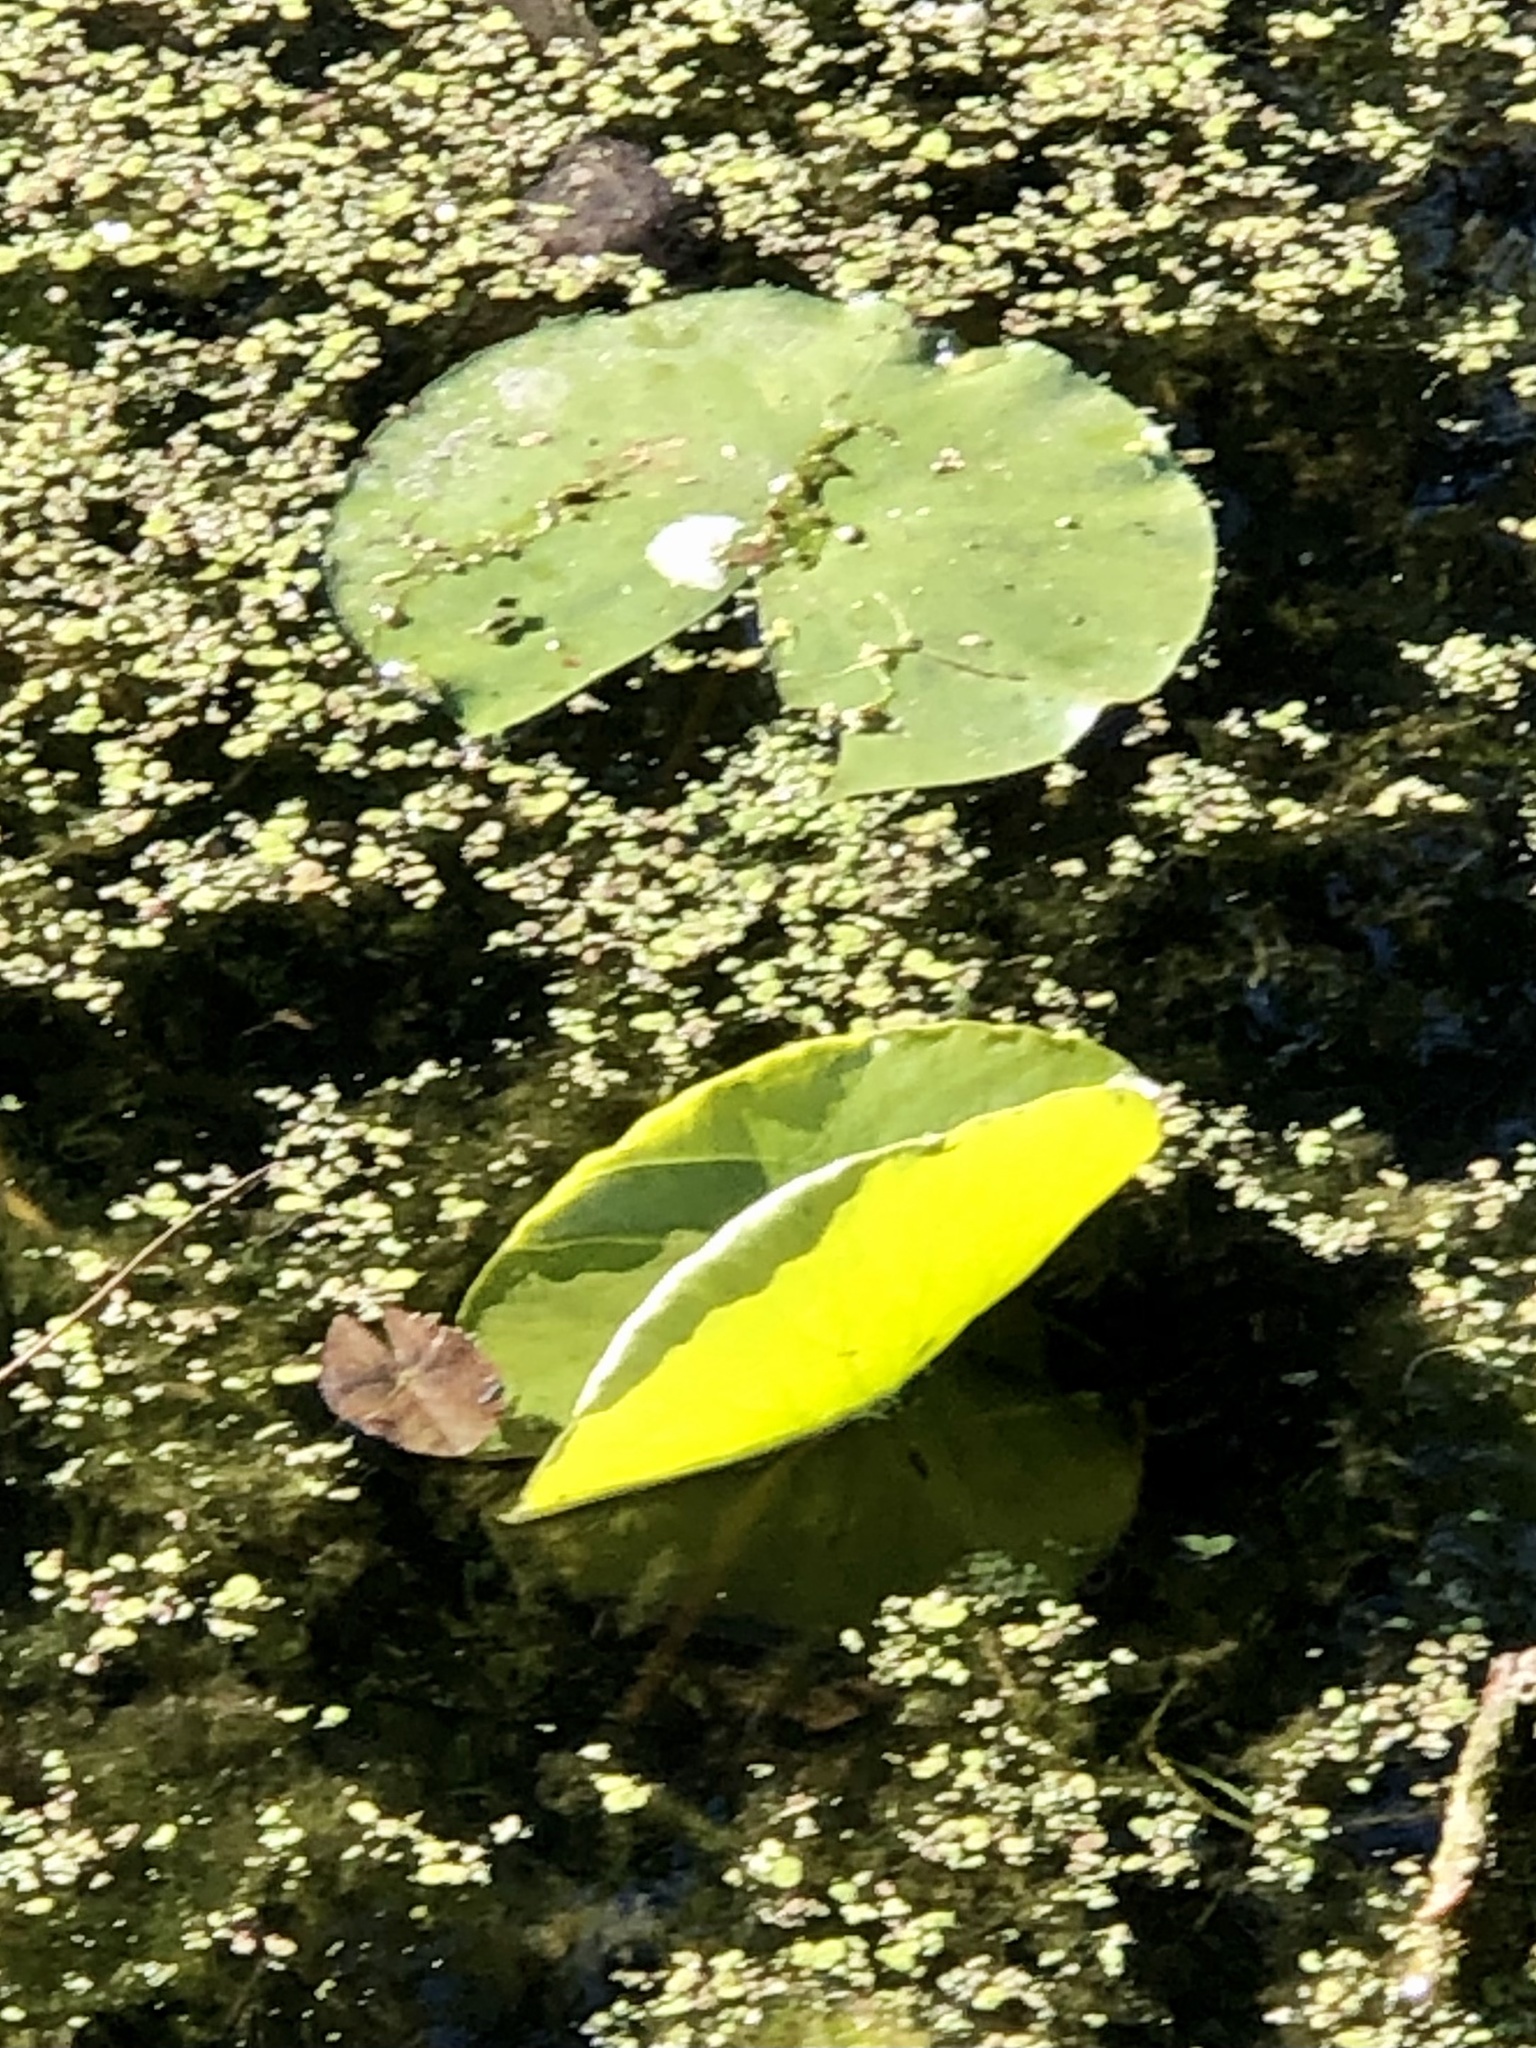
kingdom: Plantae
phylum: Tracheophyta
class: Magnoliopsida
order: Nymphaeales
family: Nymphaeaceae
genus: Nymphaea
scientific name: Nymphaea odorata
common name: Fragrant water-lily
